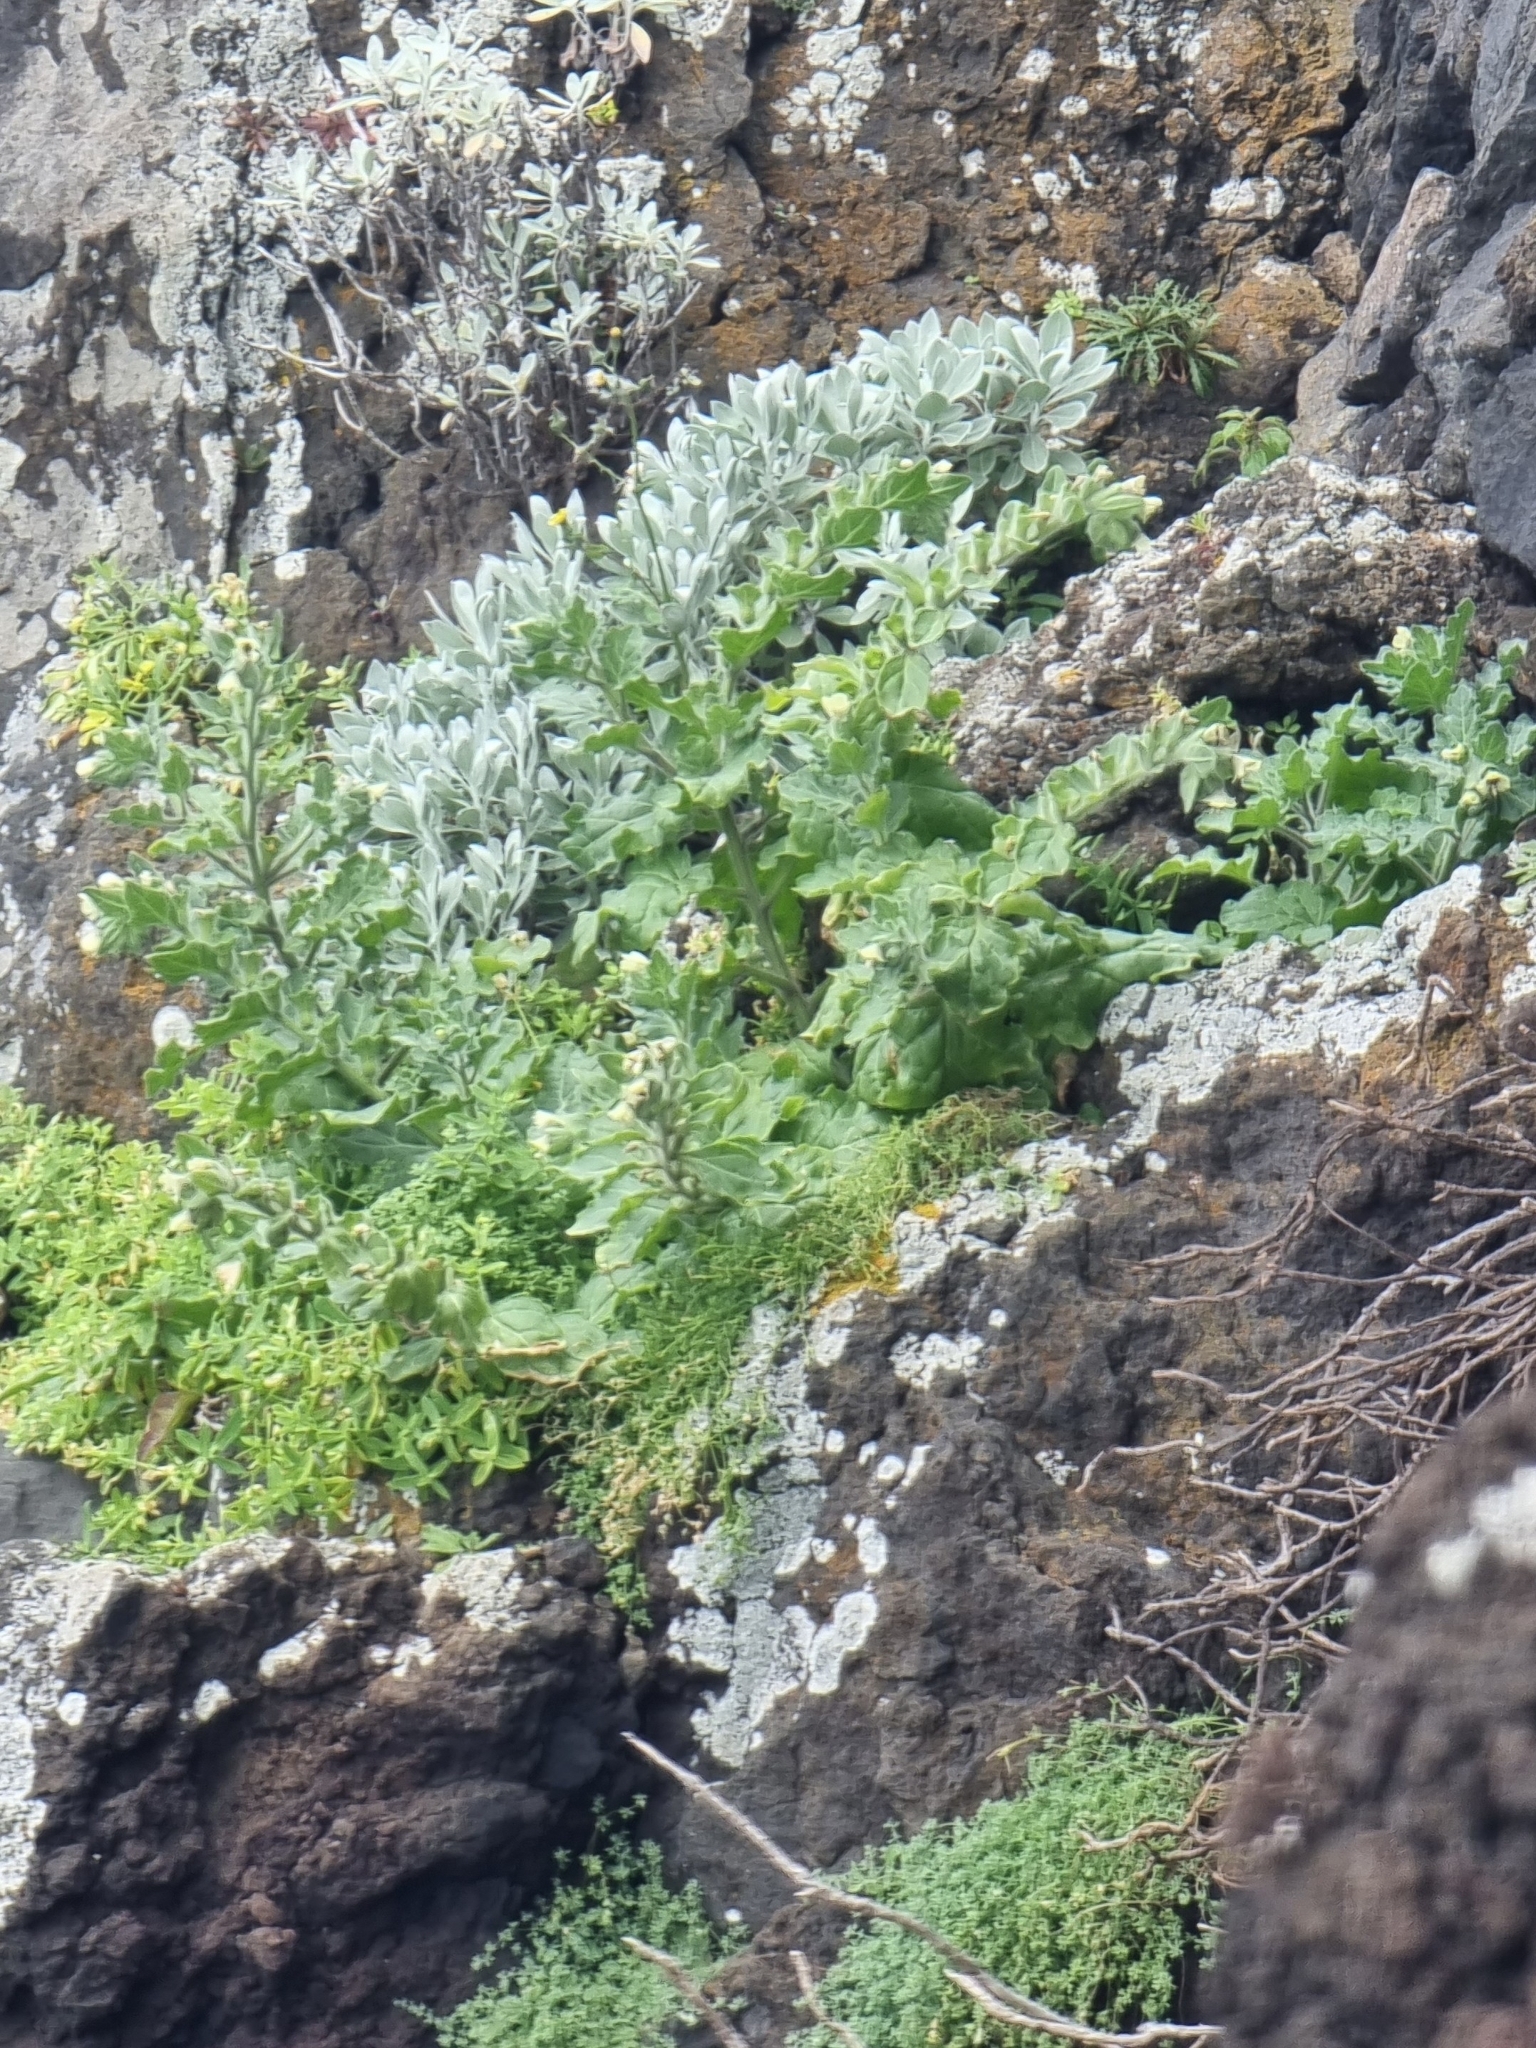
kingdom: Plantae
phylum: Tracheophyta
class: Magnoliopsida
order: Solanales
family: Solanaceae
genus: Hyoscyamus
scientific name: Hyoscyamus albus
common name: White henbane
